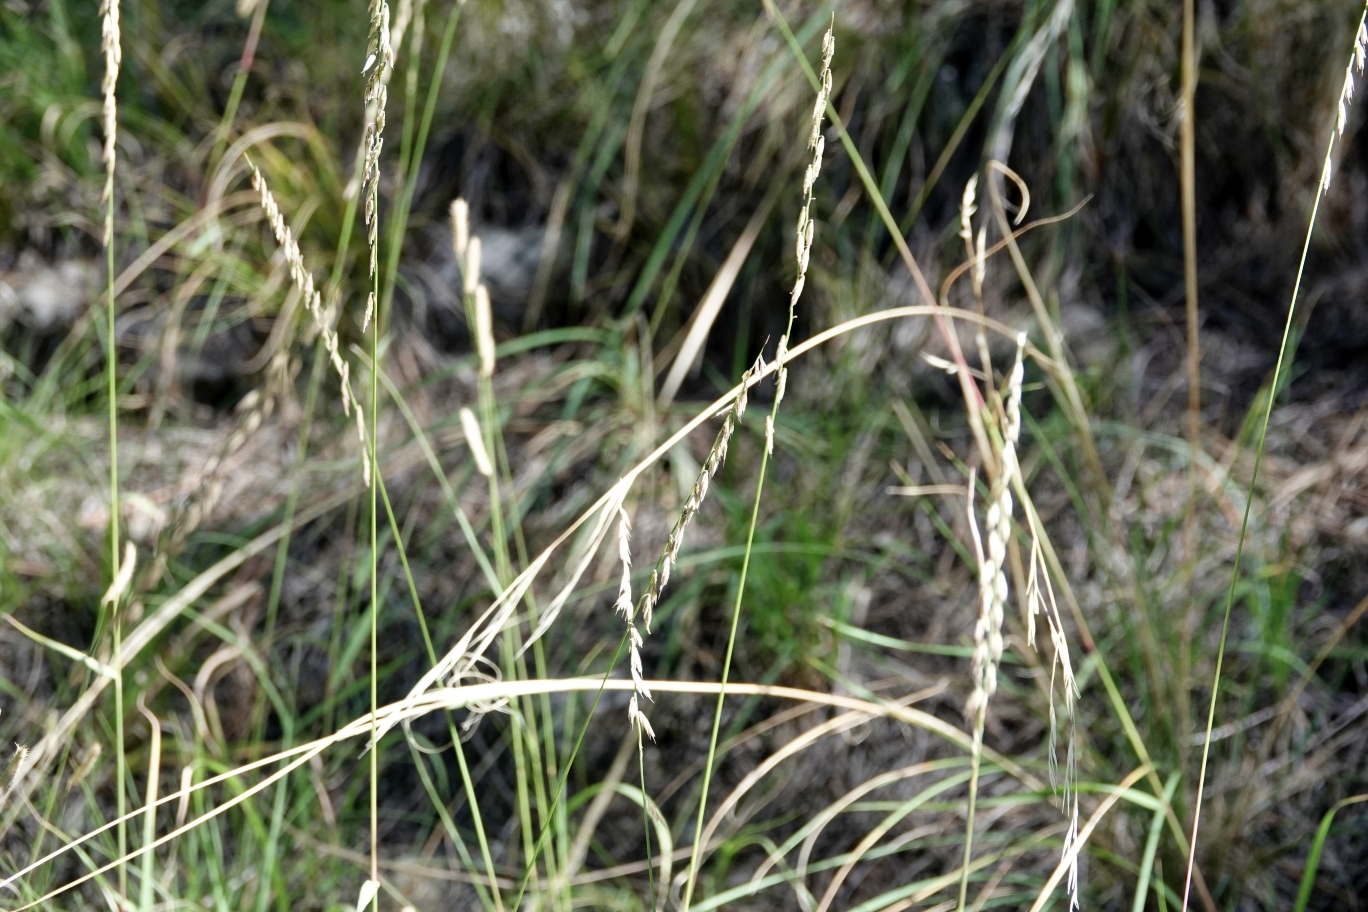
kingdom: Plantae
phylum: Tracheophyta
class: Liliopsida
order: Poales
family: Poaceae
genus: Bouteloua
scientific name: Bouteloua curtipendula
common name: Side-oats grama
